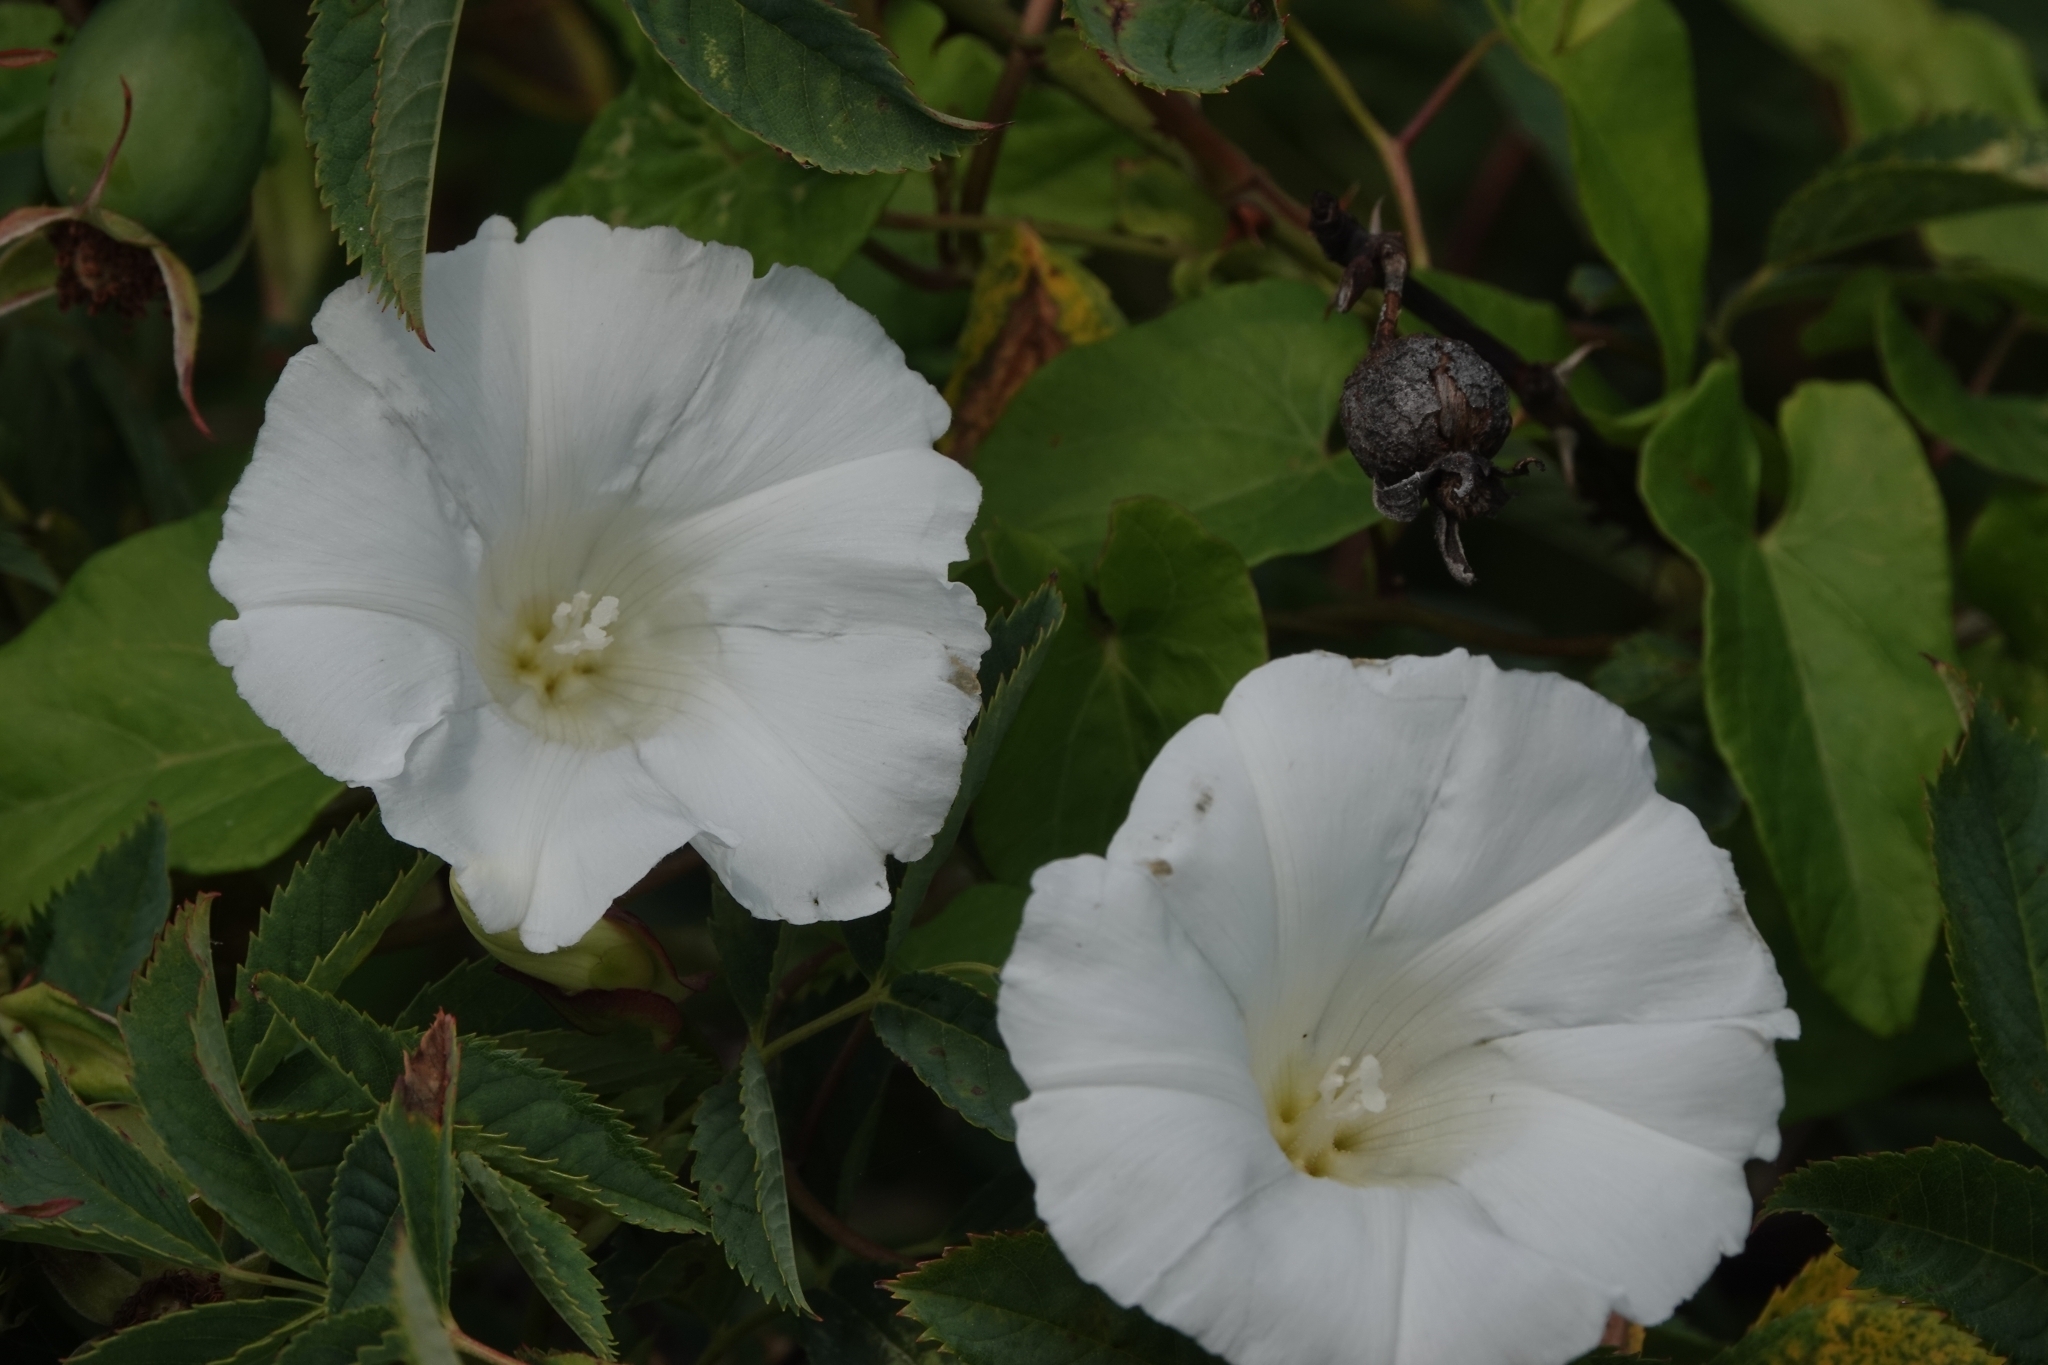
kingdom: Plantae
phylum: Tracheophyta
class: Magnoliopsida
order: Solanales
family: Convolvulaceae
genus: Calystegia
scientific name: Calystegia sepium
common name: Hedge bindweed
